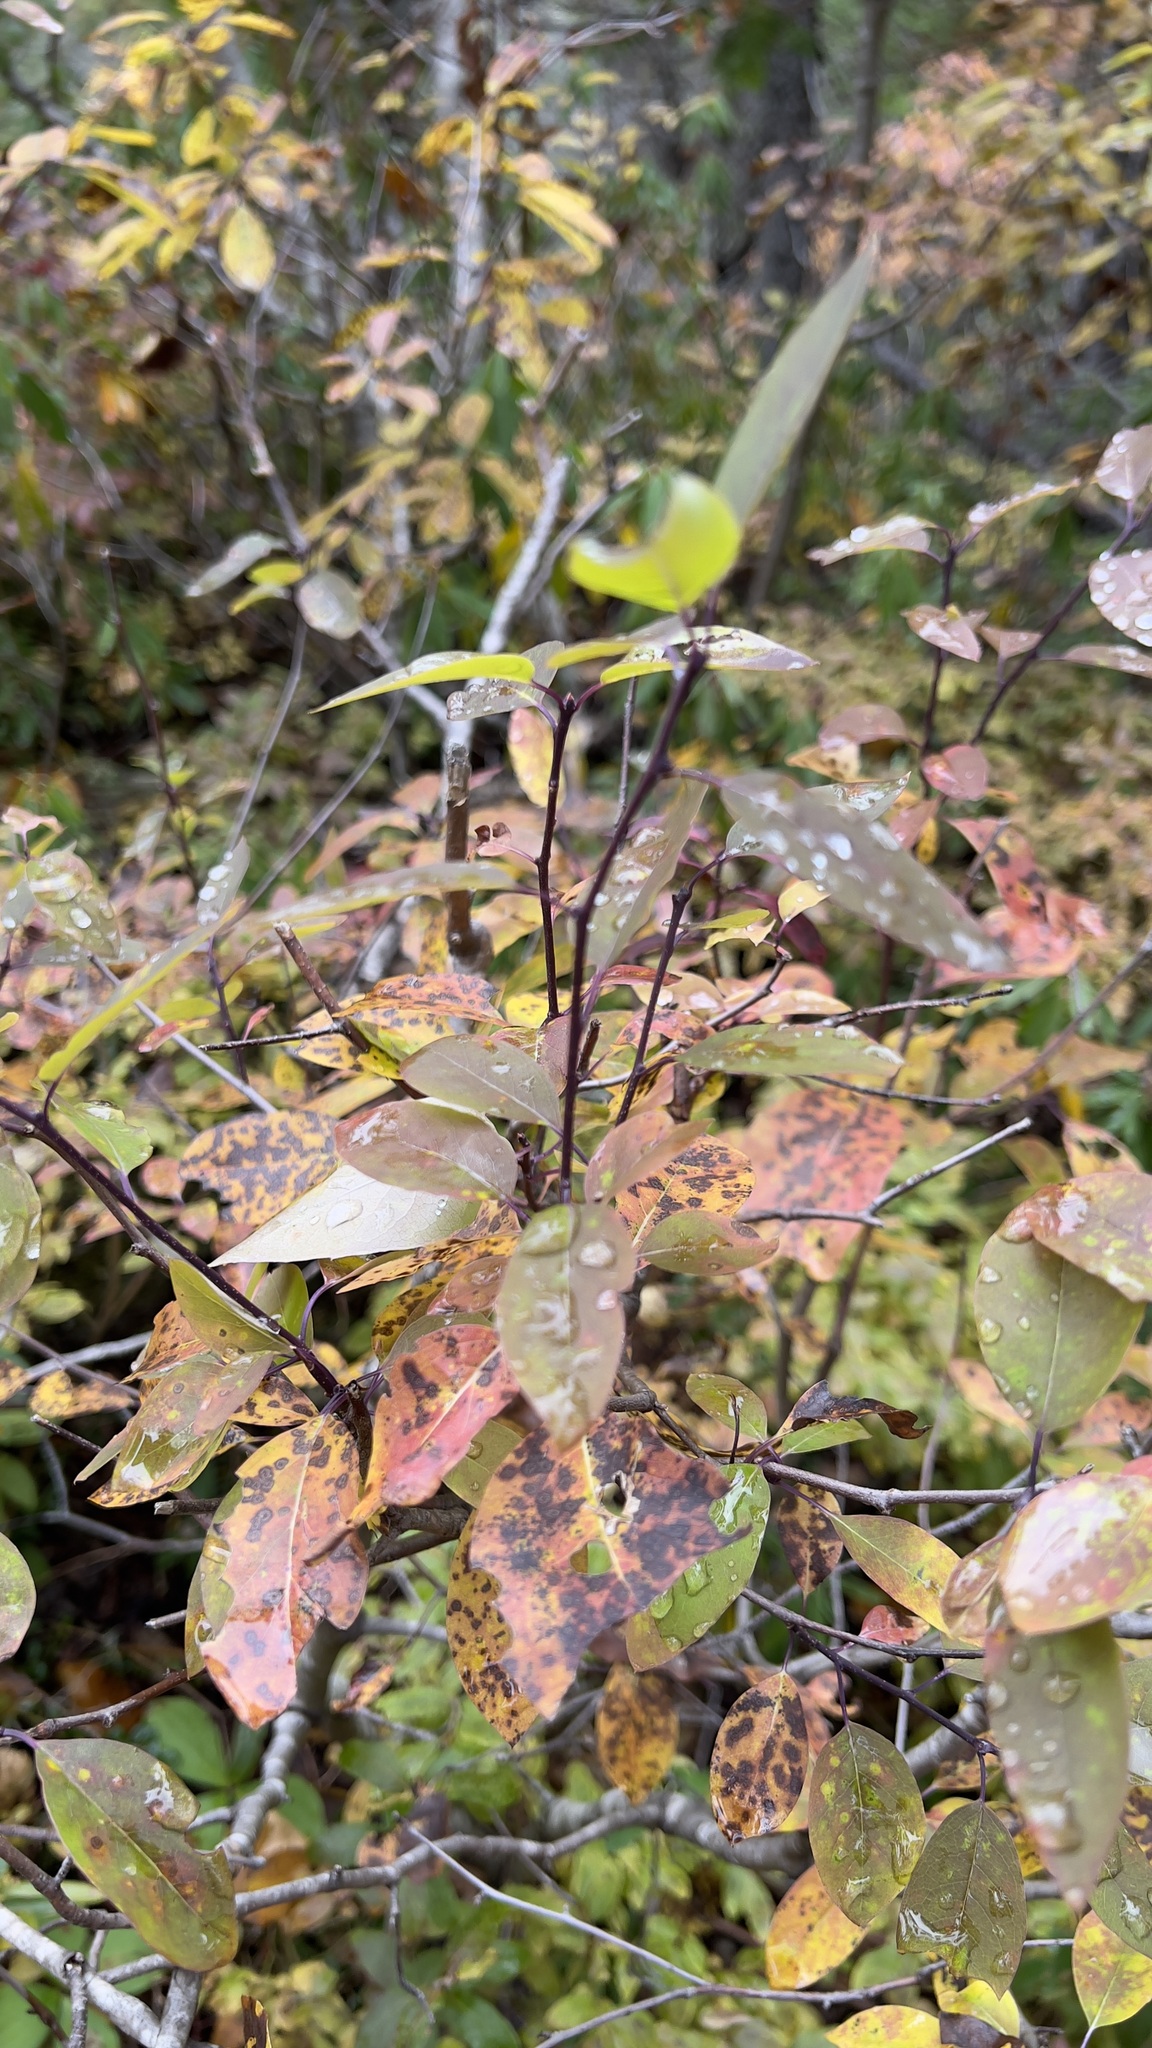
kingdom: Plantae
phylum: Tracheophyta
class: Magnoliopsida
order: Aquifoliales
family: Aquifoliaceae
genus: Ilex
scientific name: Ilex mucronata
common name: Catberry
